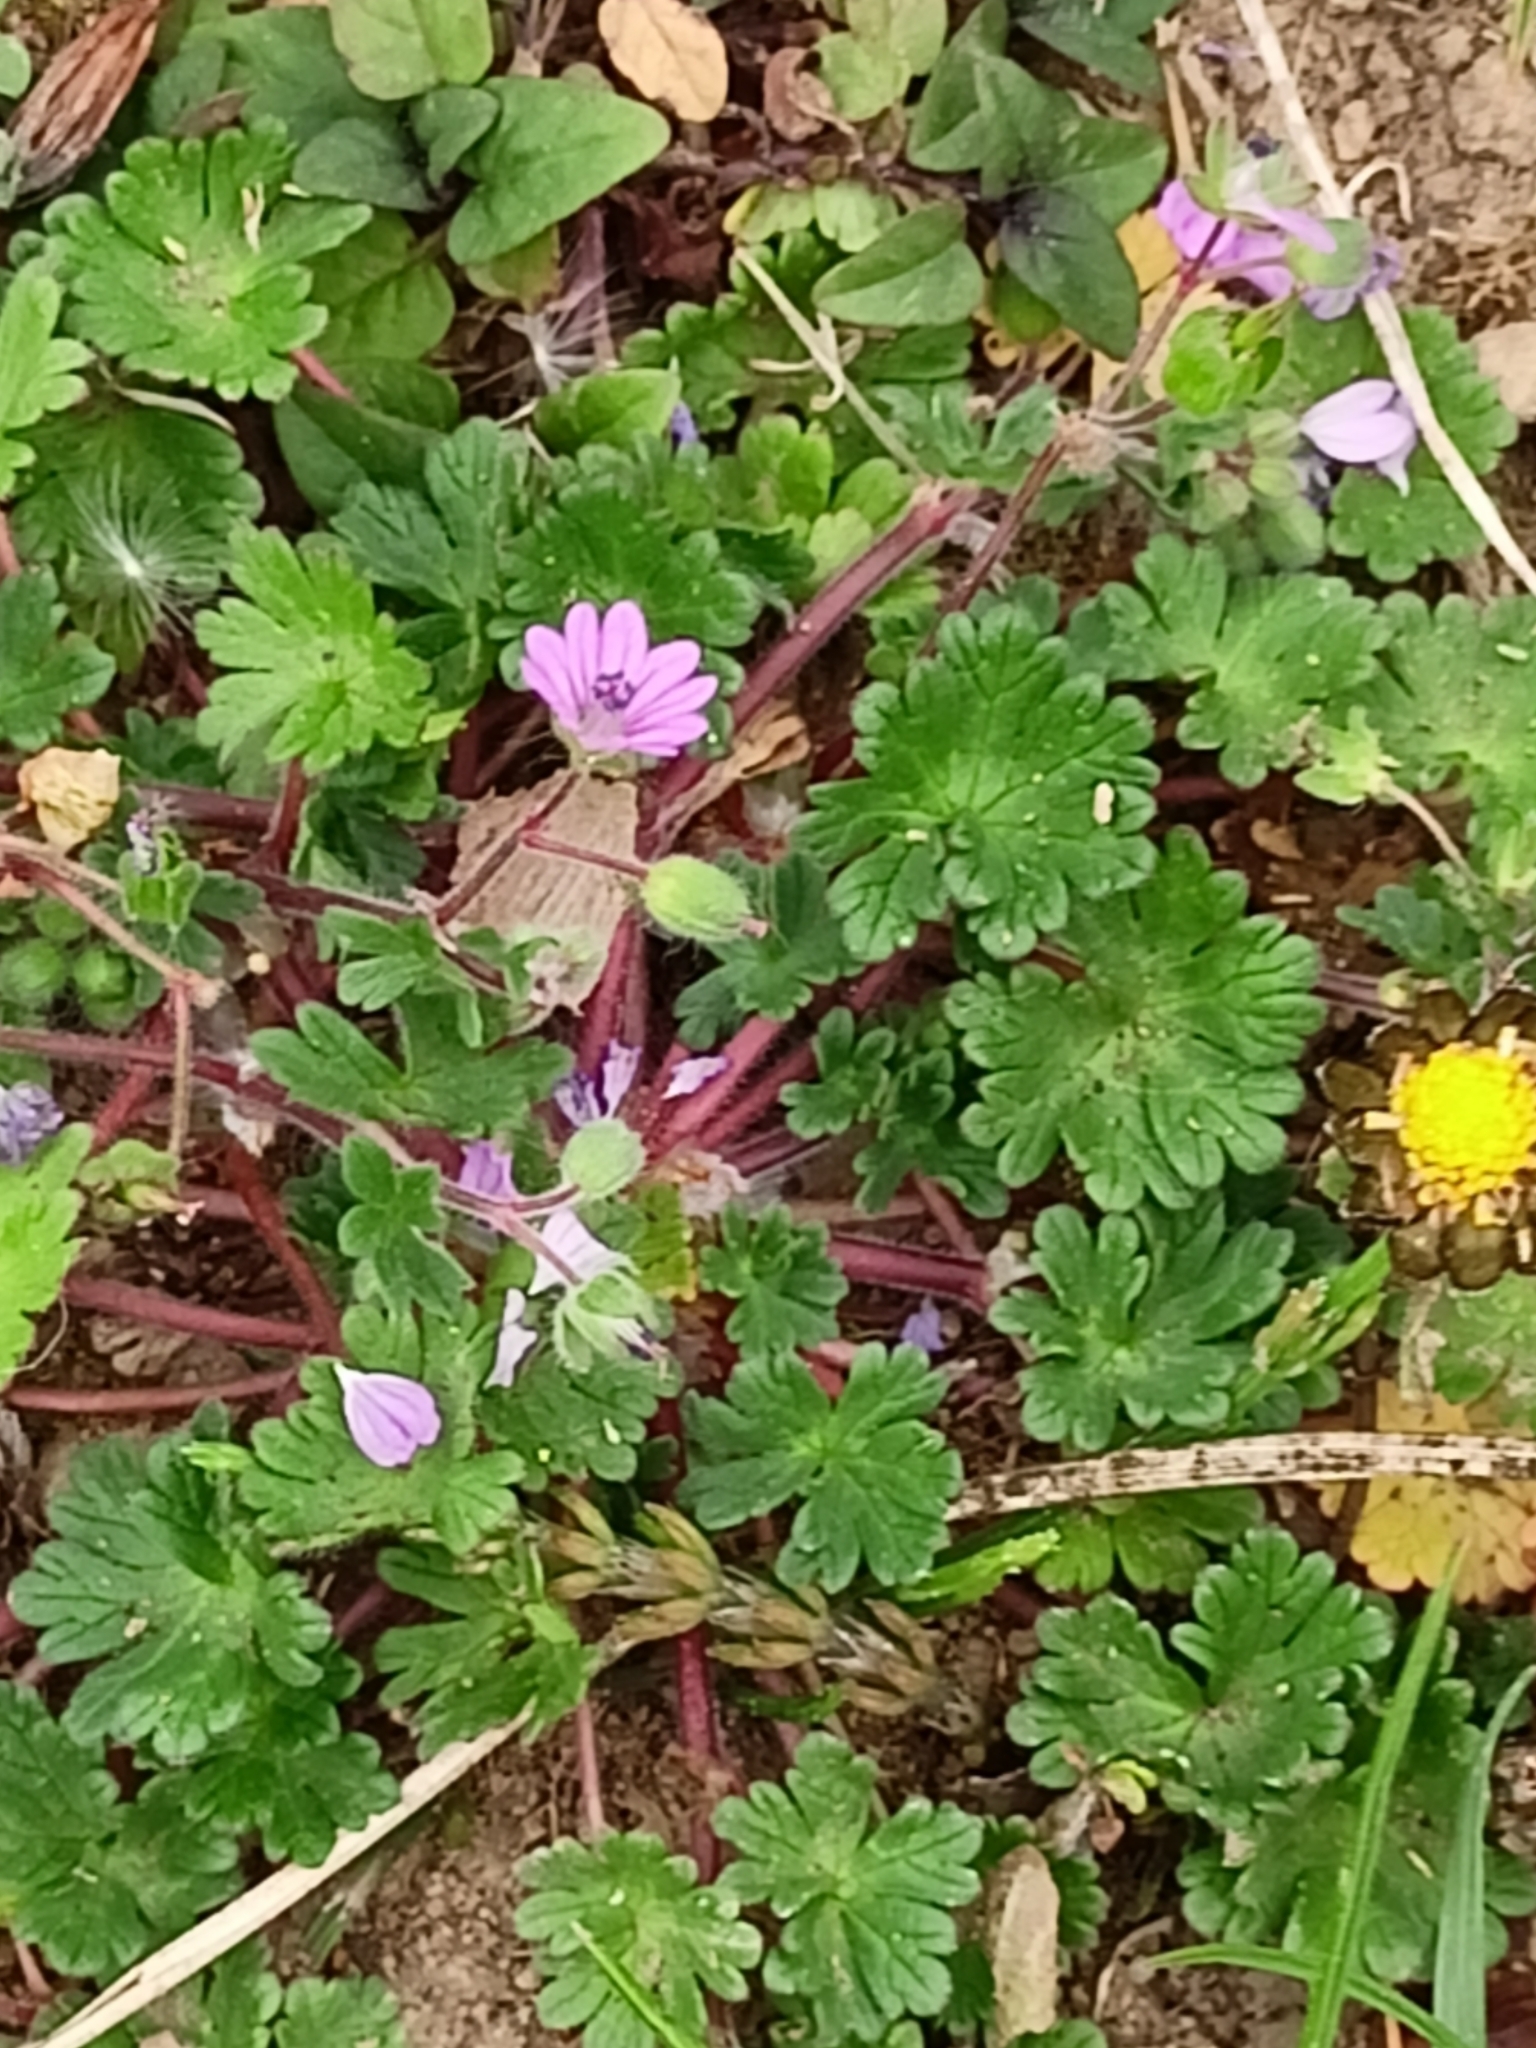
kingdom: Plantae
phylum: Tracheophyta
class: Magnoliopsida
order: Geraniales
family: Geraniaceae
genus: Geranium
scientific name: Geranium molle
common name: Dove's-foot crane's-bill
